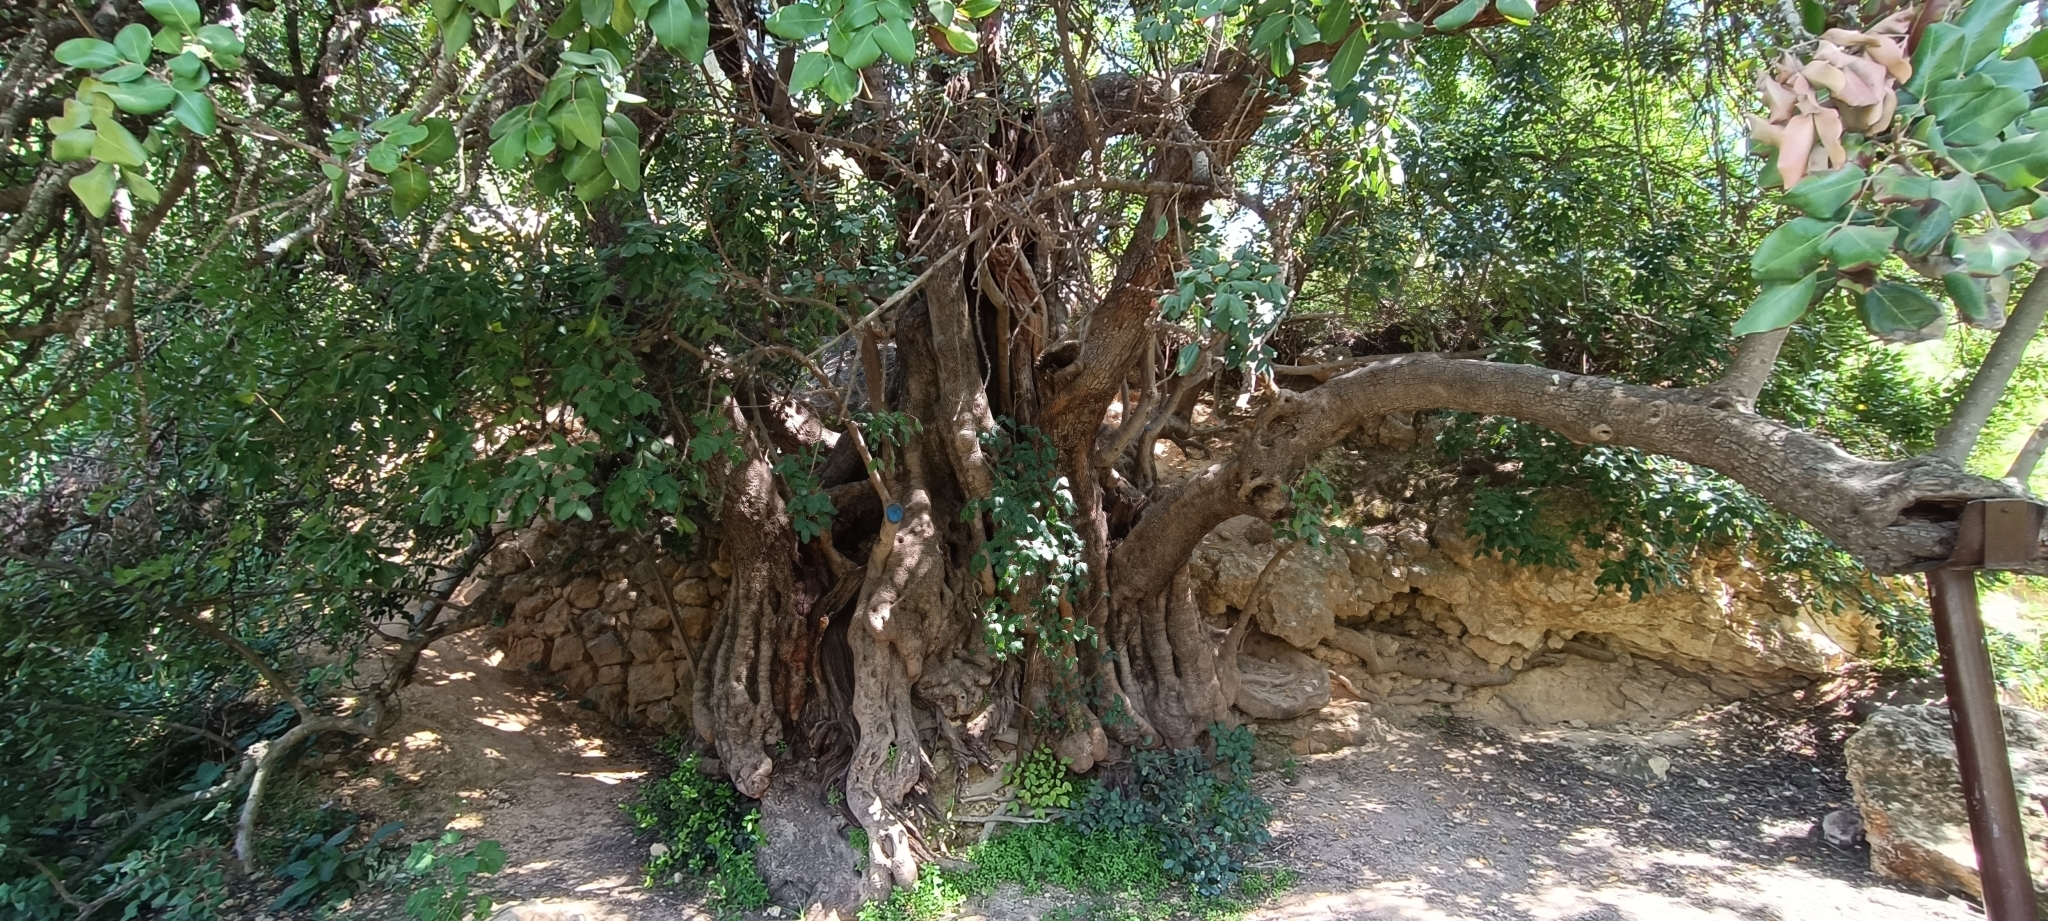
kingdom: Plantae
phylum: Tracheophyta
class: Magnoliopsida
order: Fabales
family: Fabaceae
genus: Ceratonia
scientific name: Ceratonia siliqua
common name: Carob
